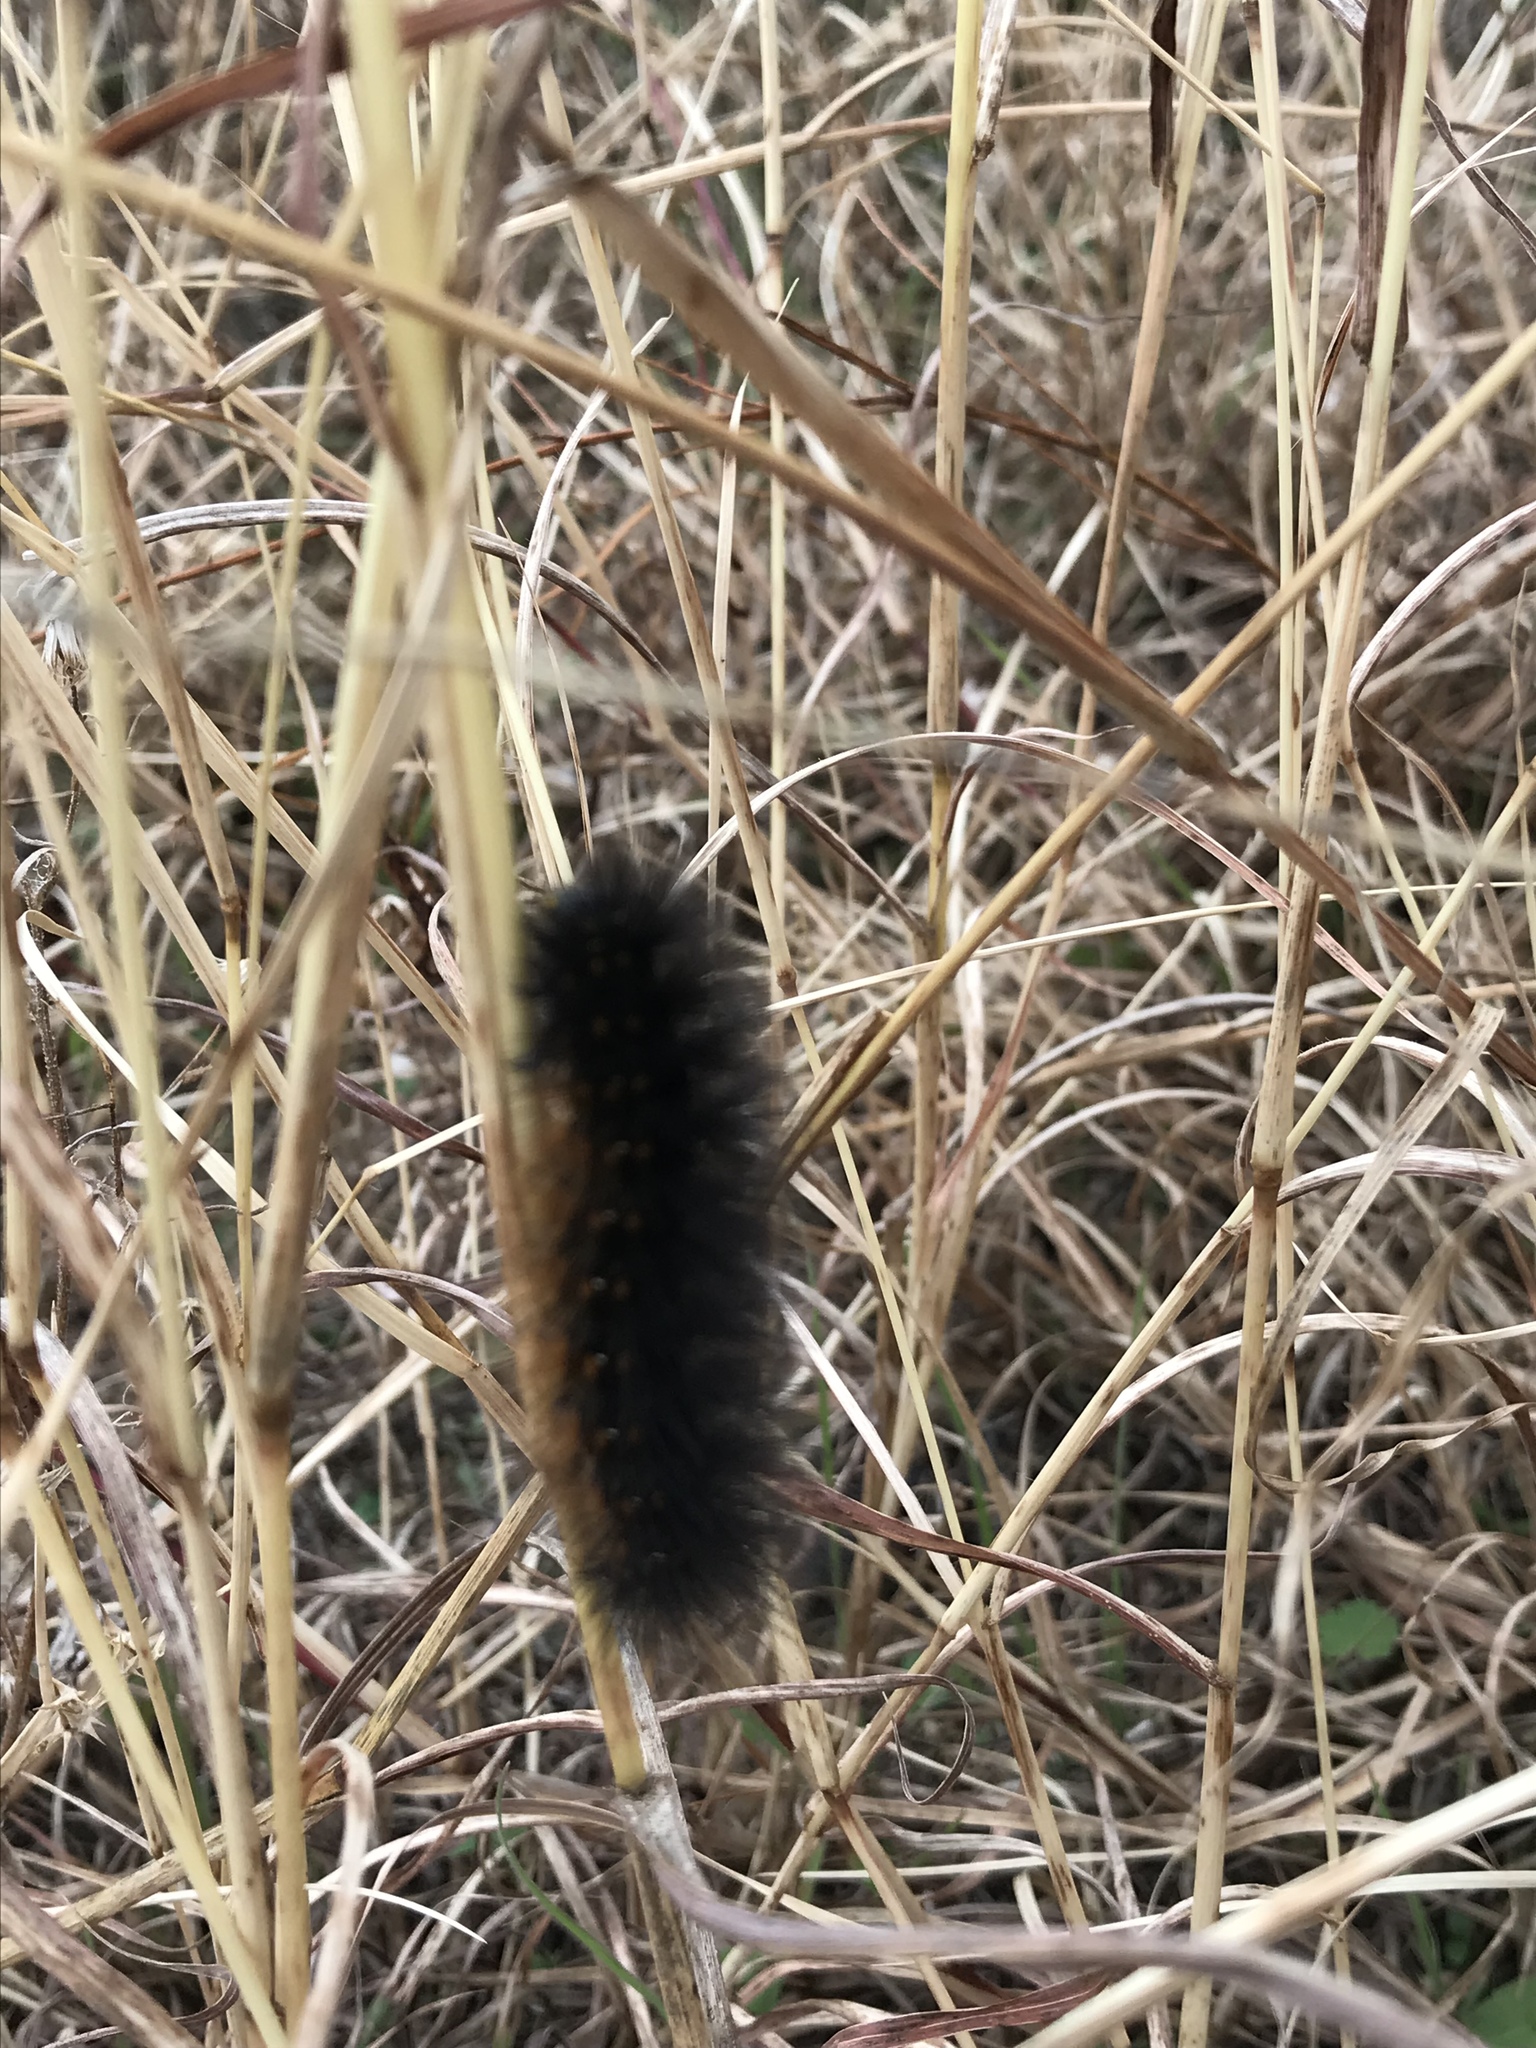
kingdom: Animalia
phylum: Arthropoda
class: Insecta
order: Lepidoptera
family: Erebidae
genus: Estigmene
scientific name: Estigmene acrea
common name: Salt marsh moth
